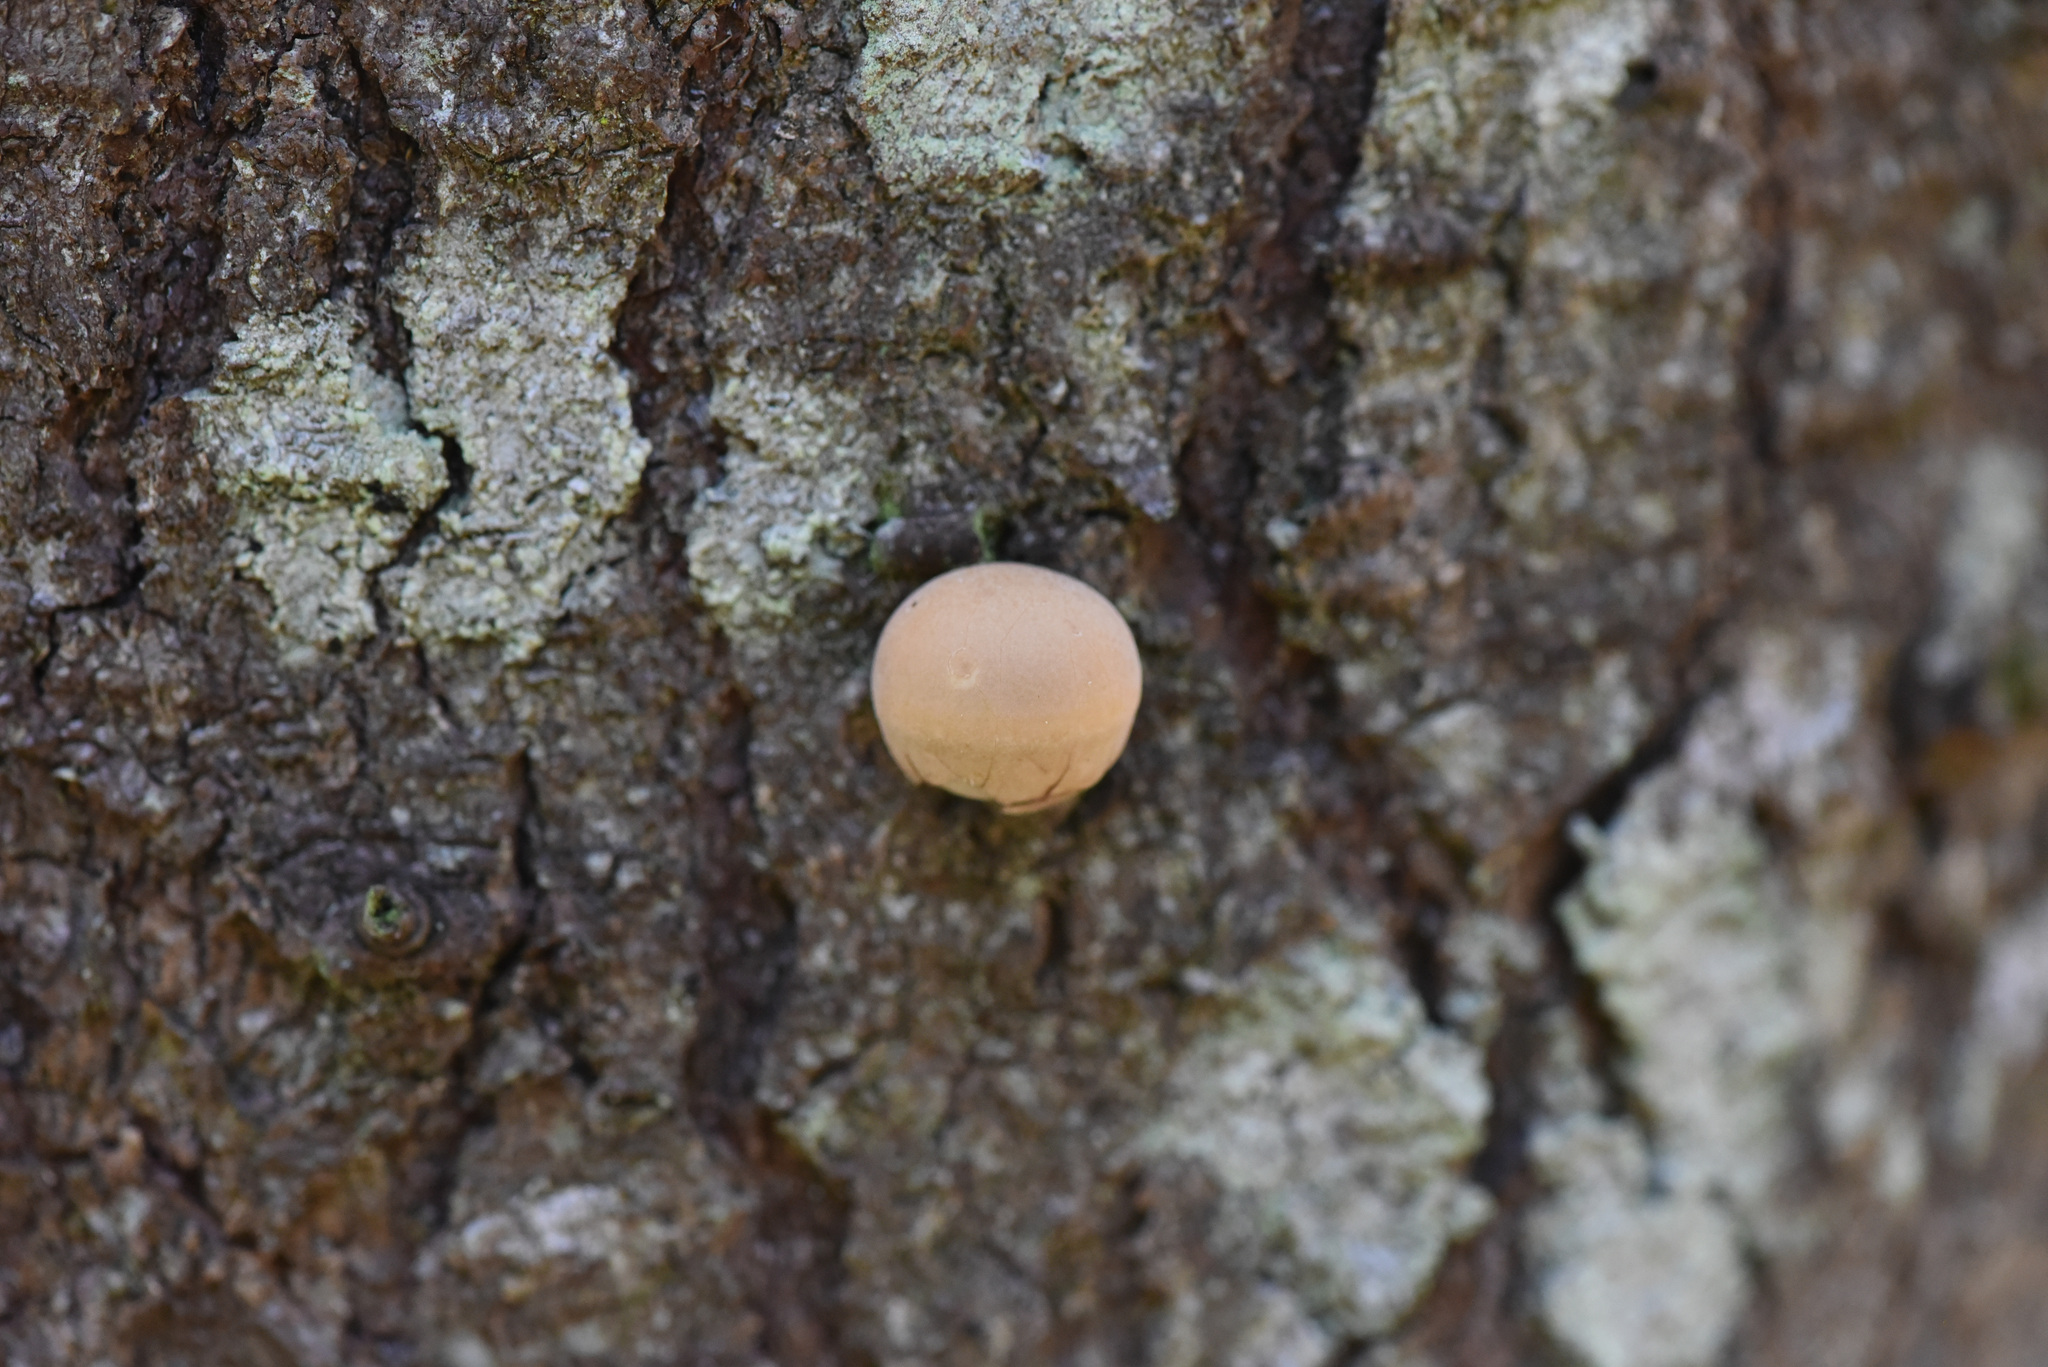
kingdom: Fungi
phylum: Basidiomycota
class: Agaricomycetes
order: Polyporales
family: Polyporaceae
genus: Cryptoporus
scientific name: Cryptoporus volvatus
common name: Veiled polypore
